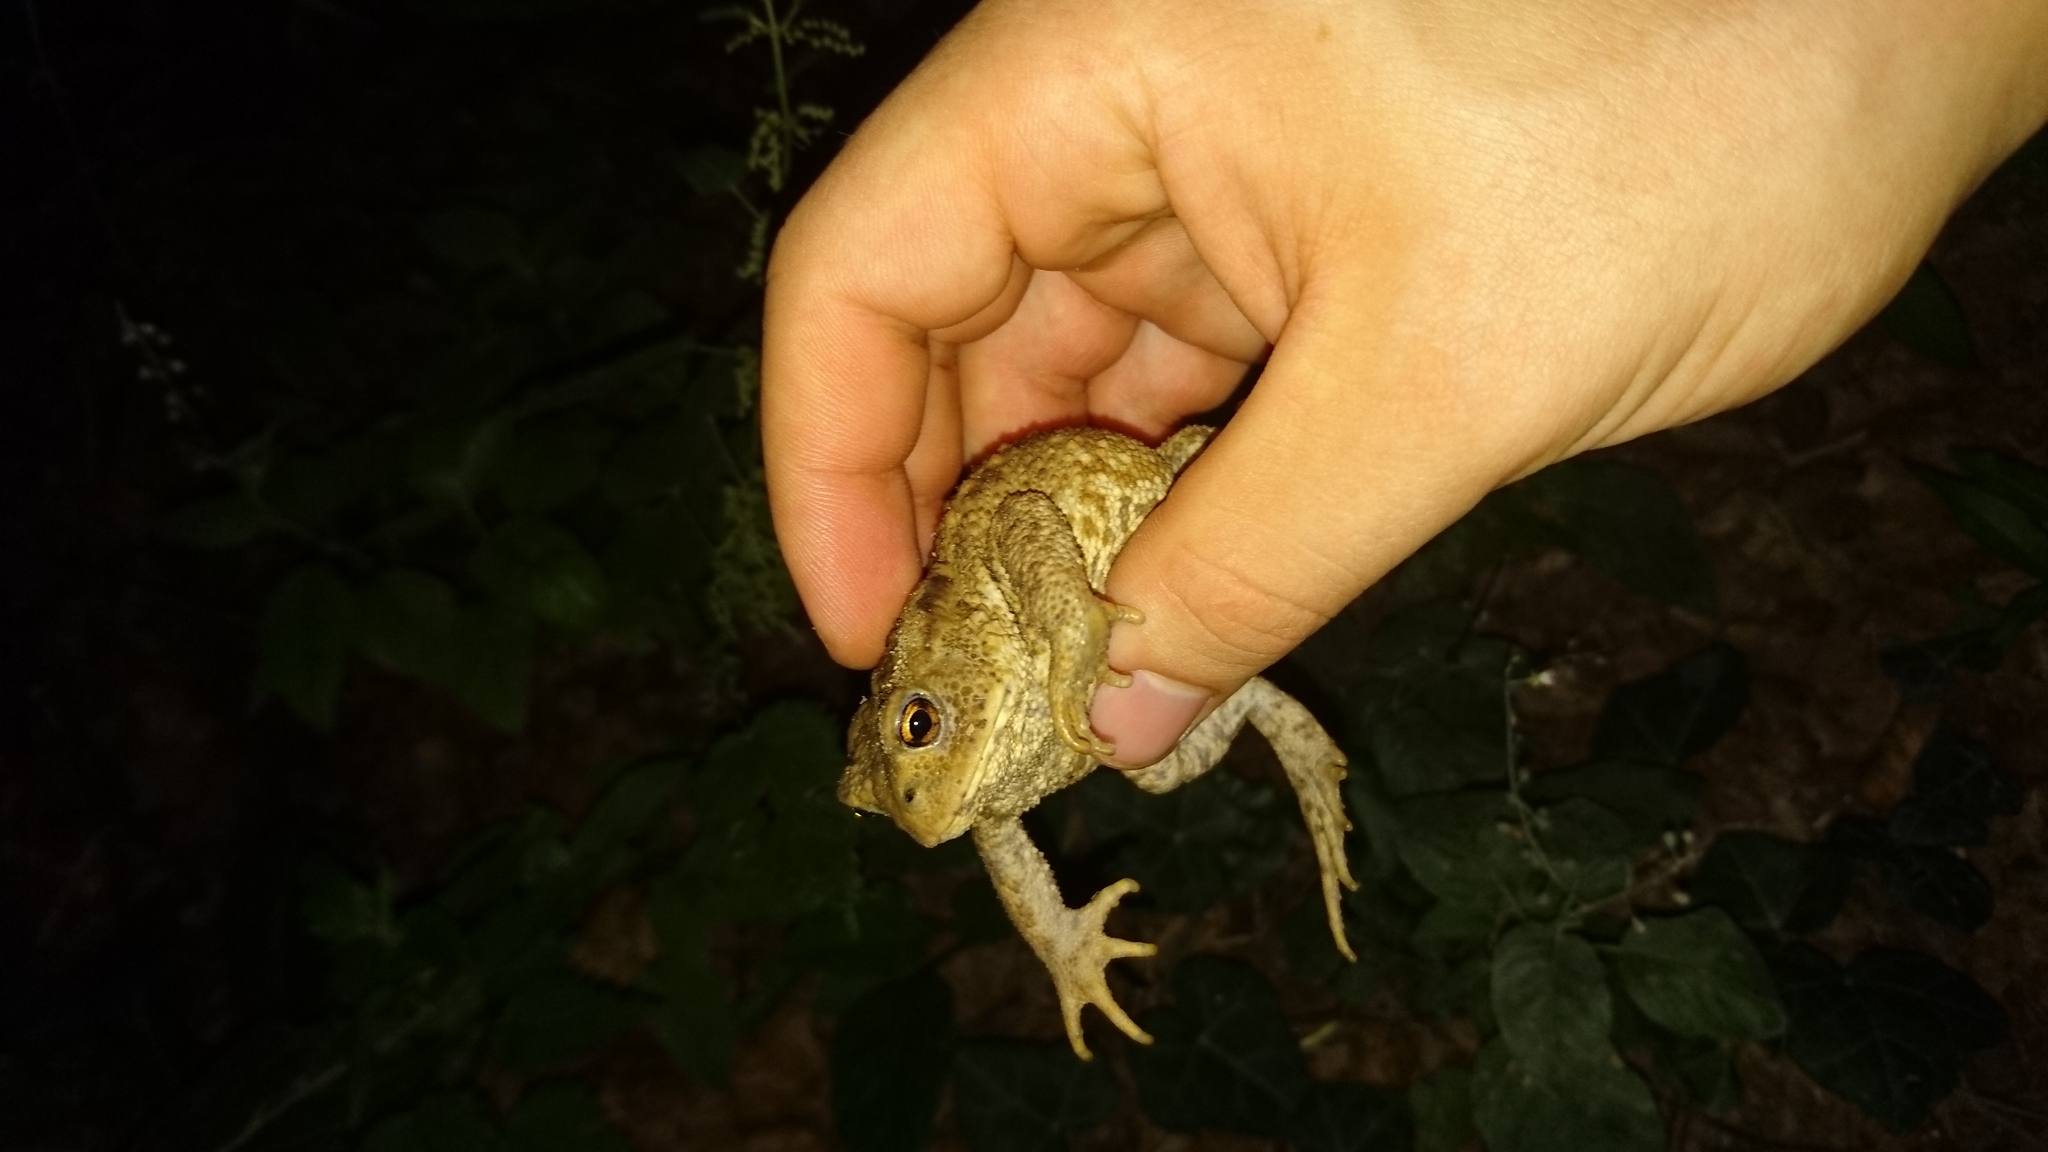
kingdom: Animalia
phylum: Chordata
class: Amphibia
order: Anura
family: Bufonidae
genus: Bufo
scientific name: Bufo bufo
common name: Common toad
